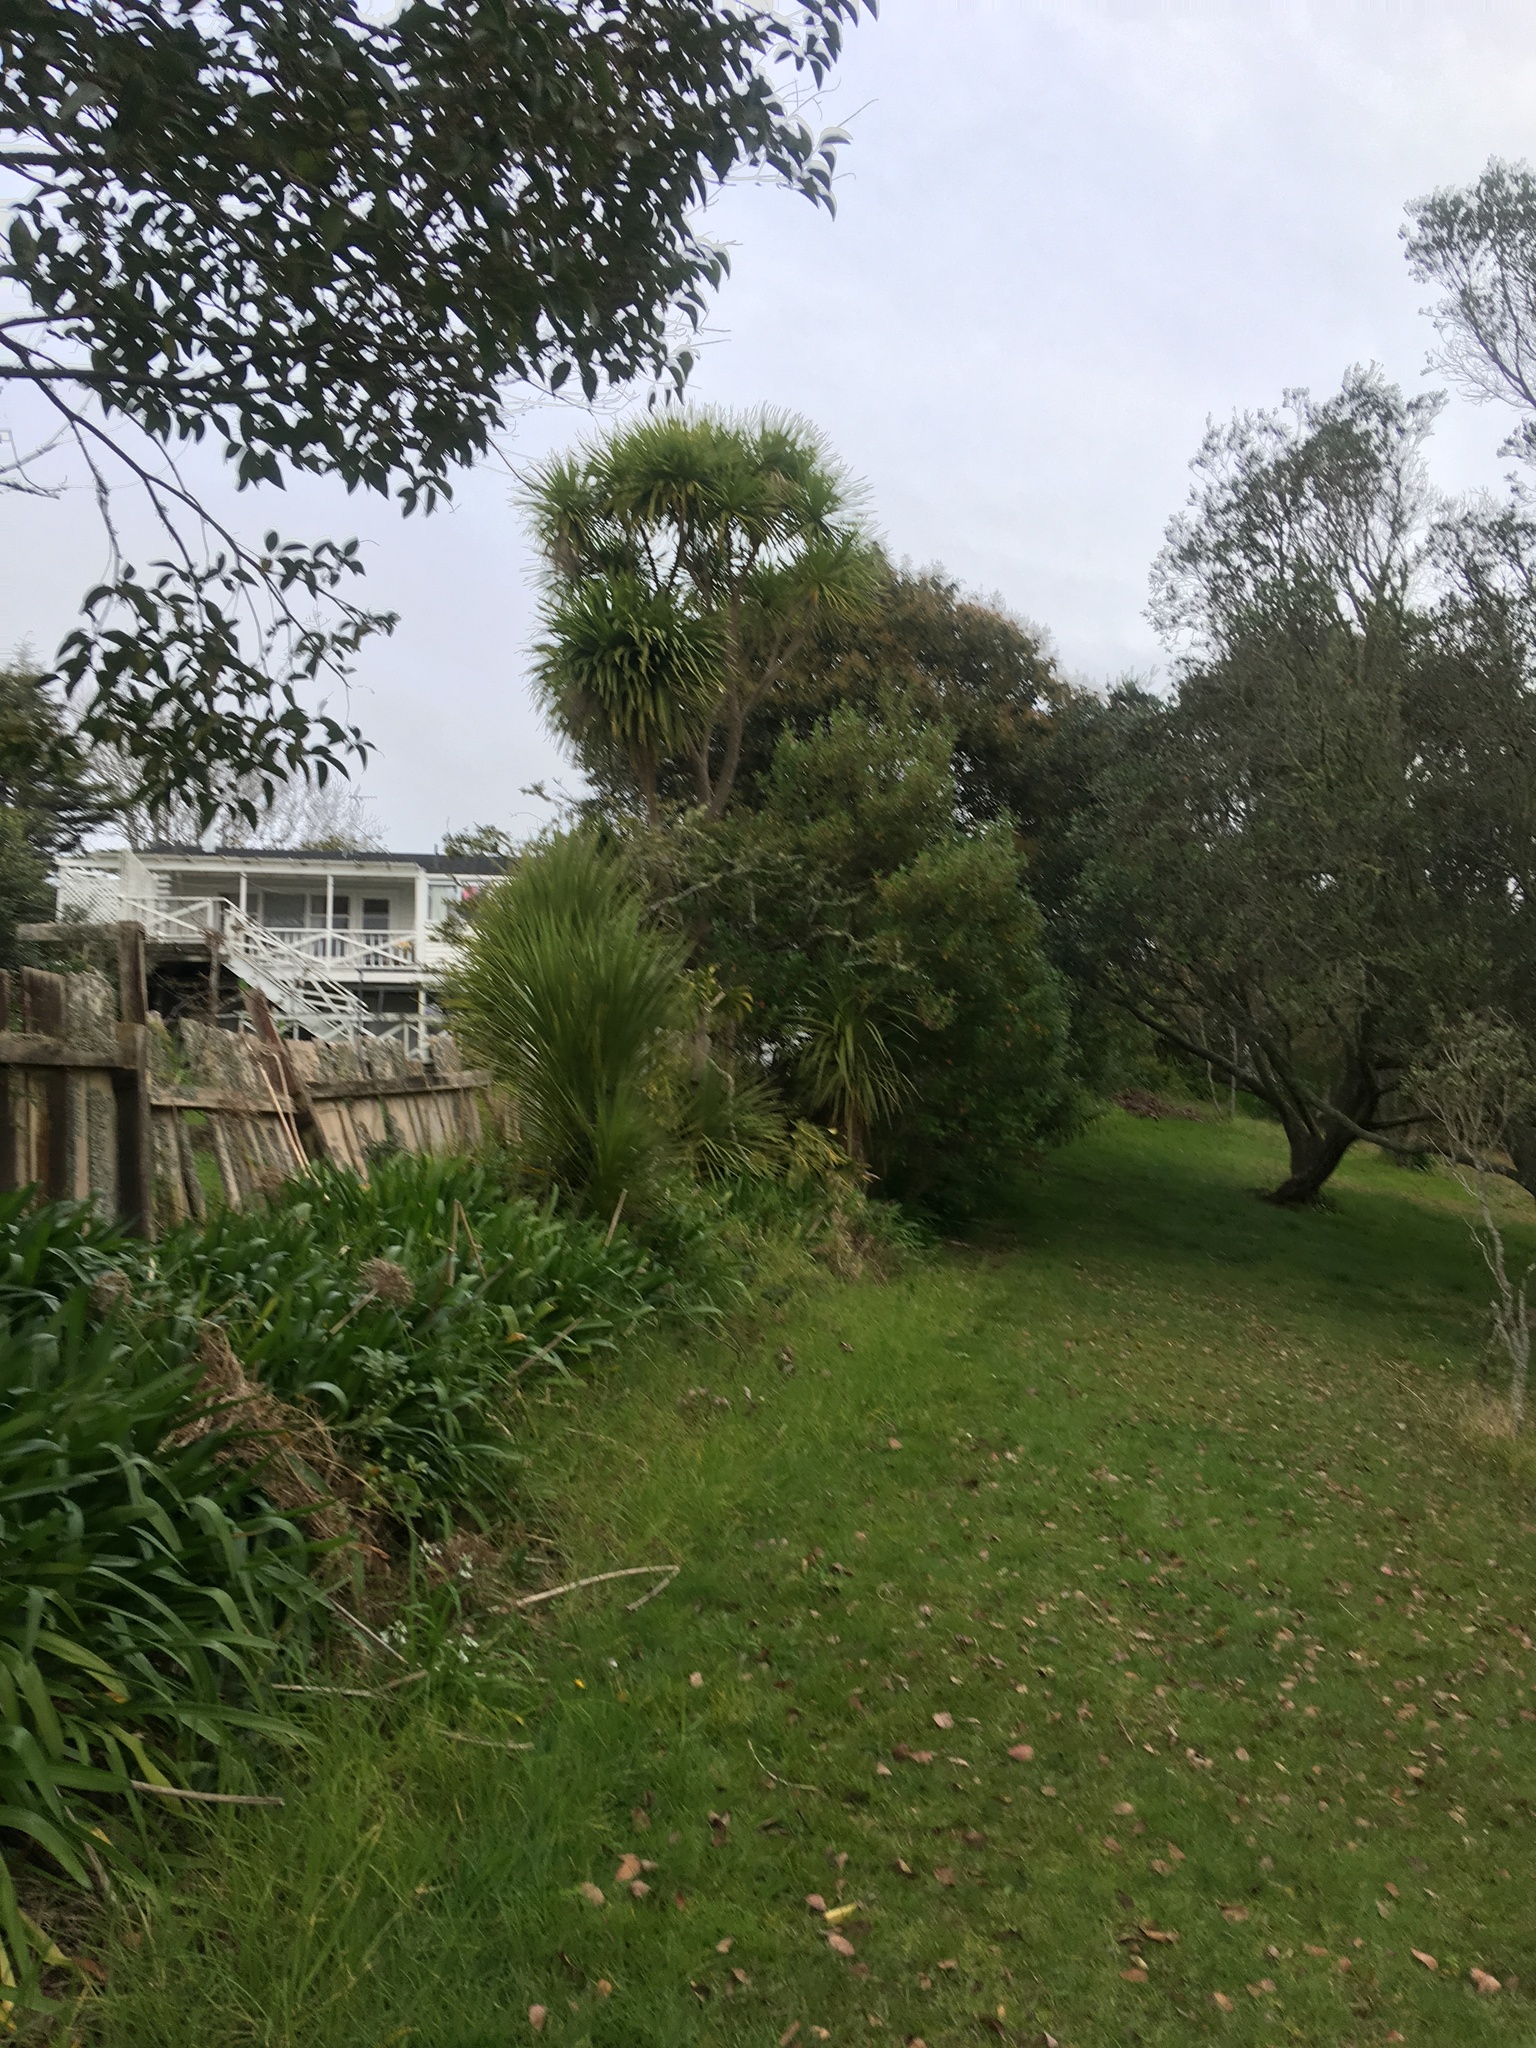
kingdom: Plantae
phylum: Tracheophyta
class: Liliopsida
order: Asparagales
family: Amaryllidaceae
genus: Agapanthus
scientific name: Agapanthus praecox
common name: African-lily
